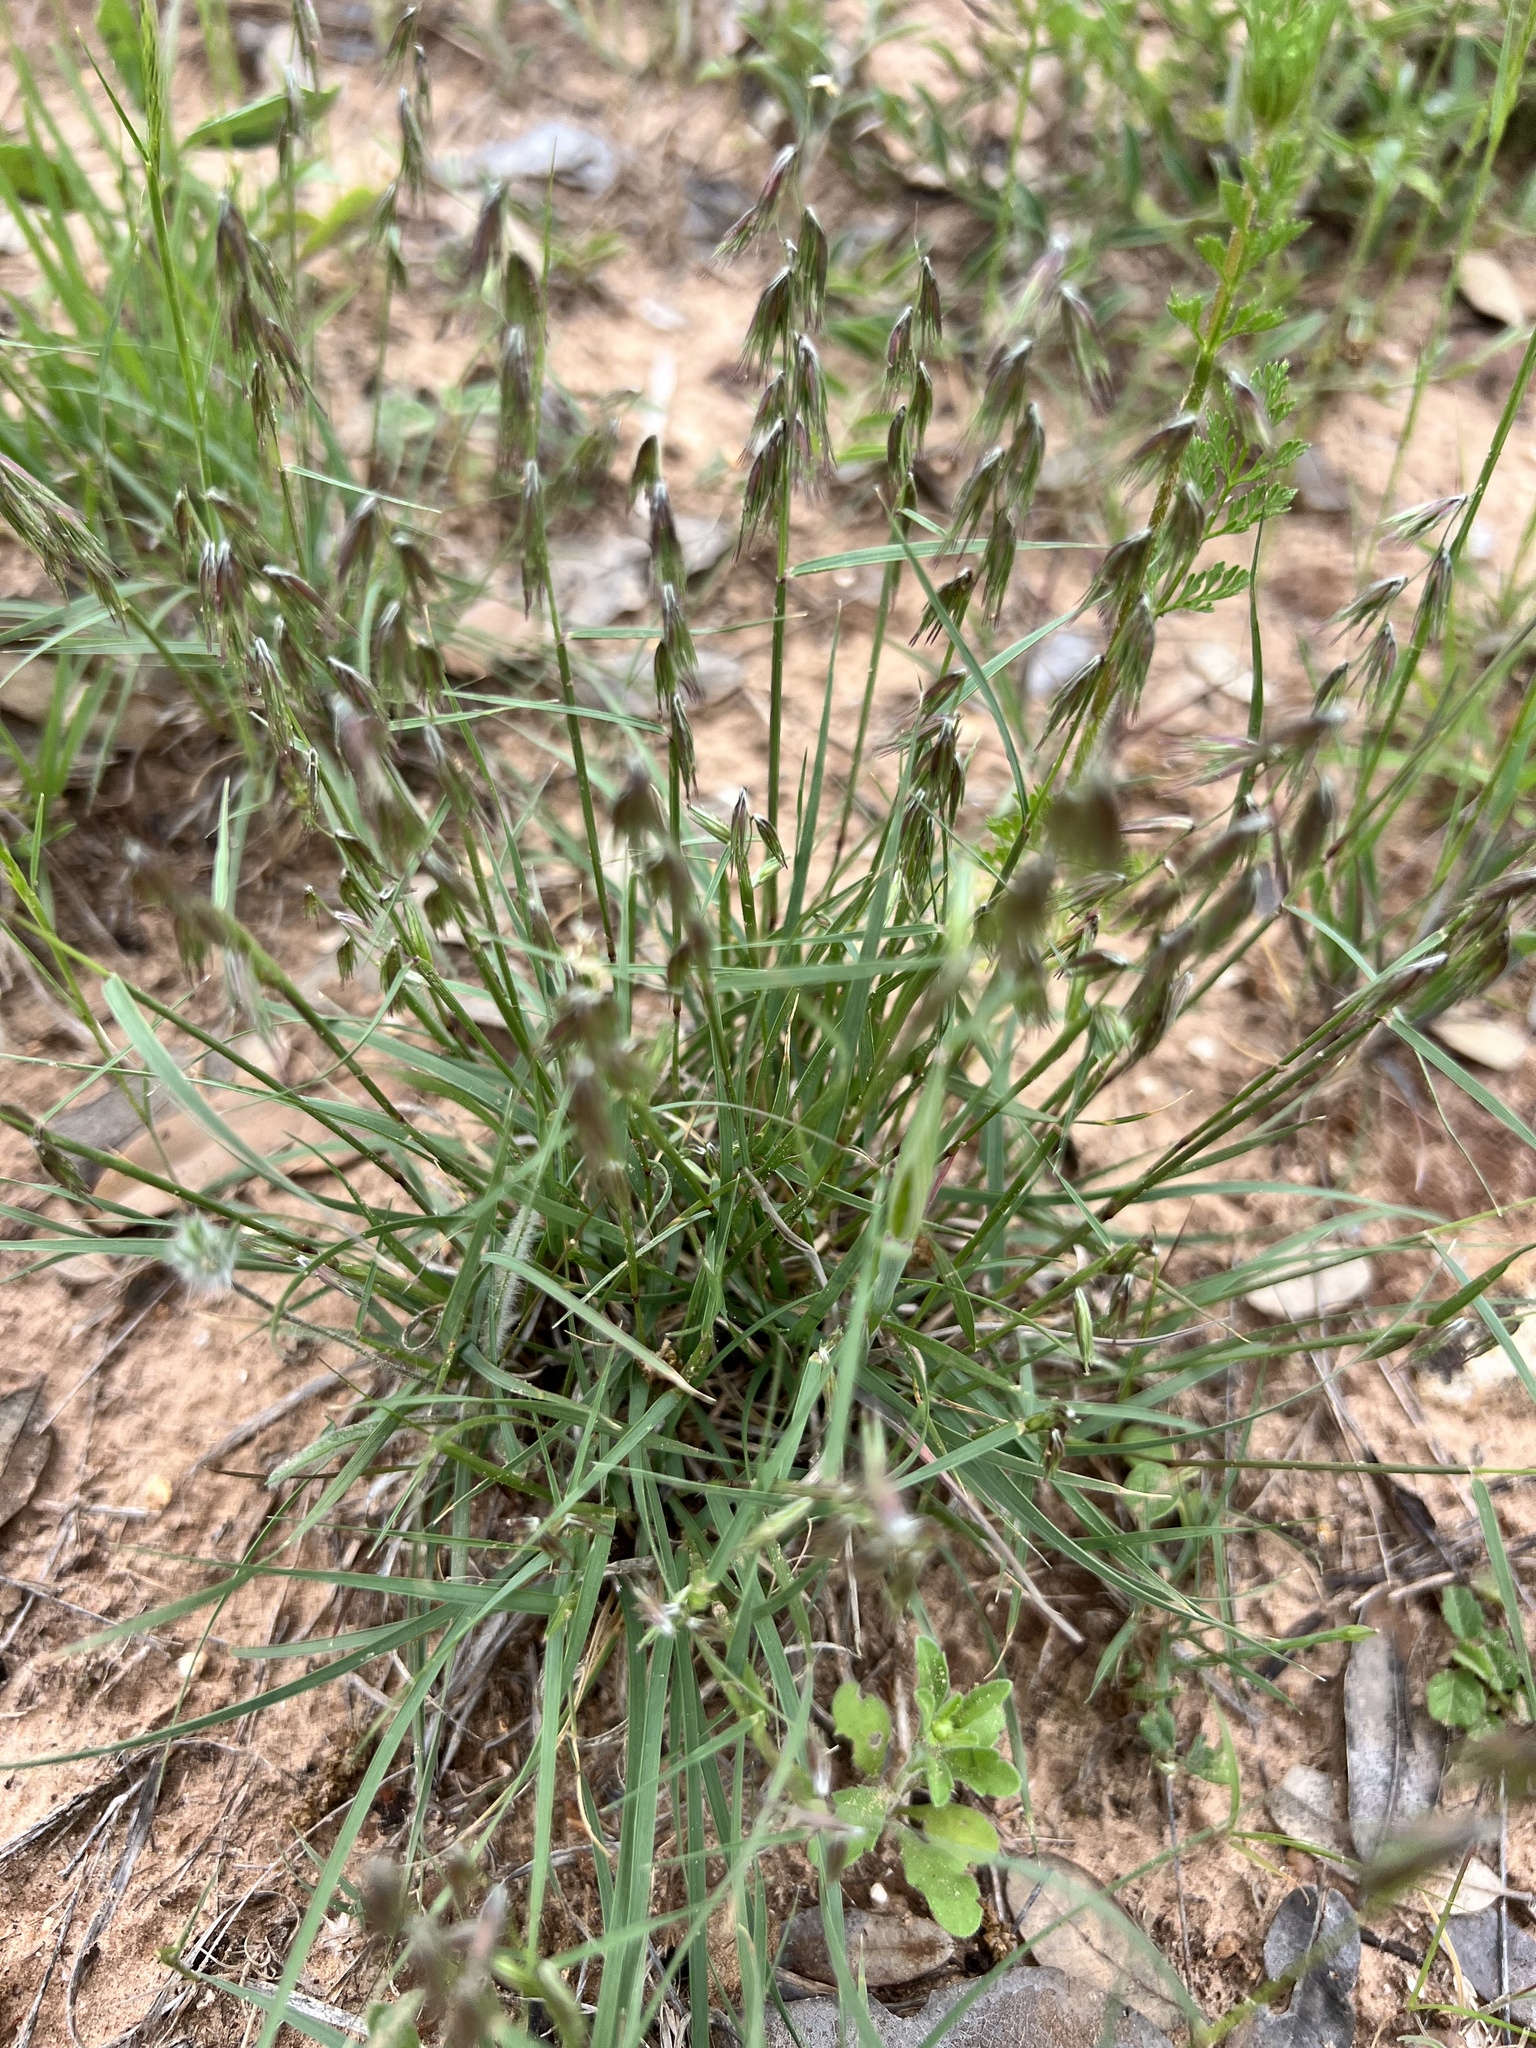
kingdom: Plantae
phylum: Tracheophyta
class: Liliopsida
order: Poales
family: Poaceae
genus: Bouteloua
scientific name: Bouteloua rigidiseta
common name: Texas grama
